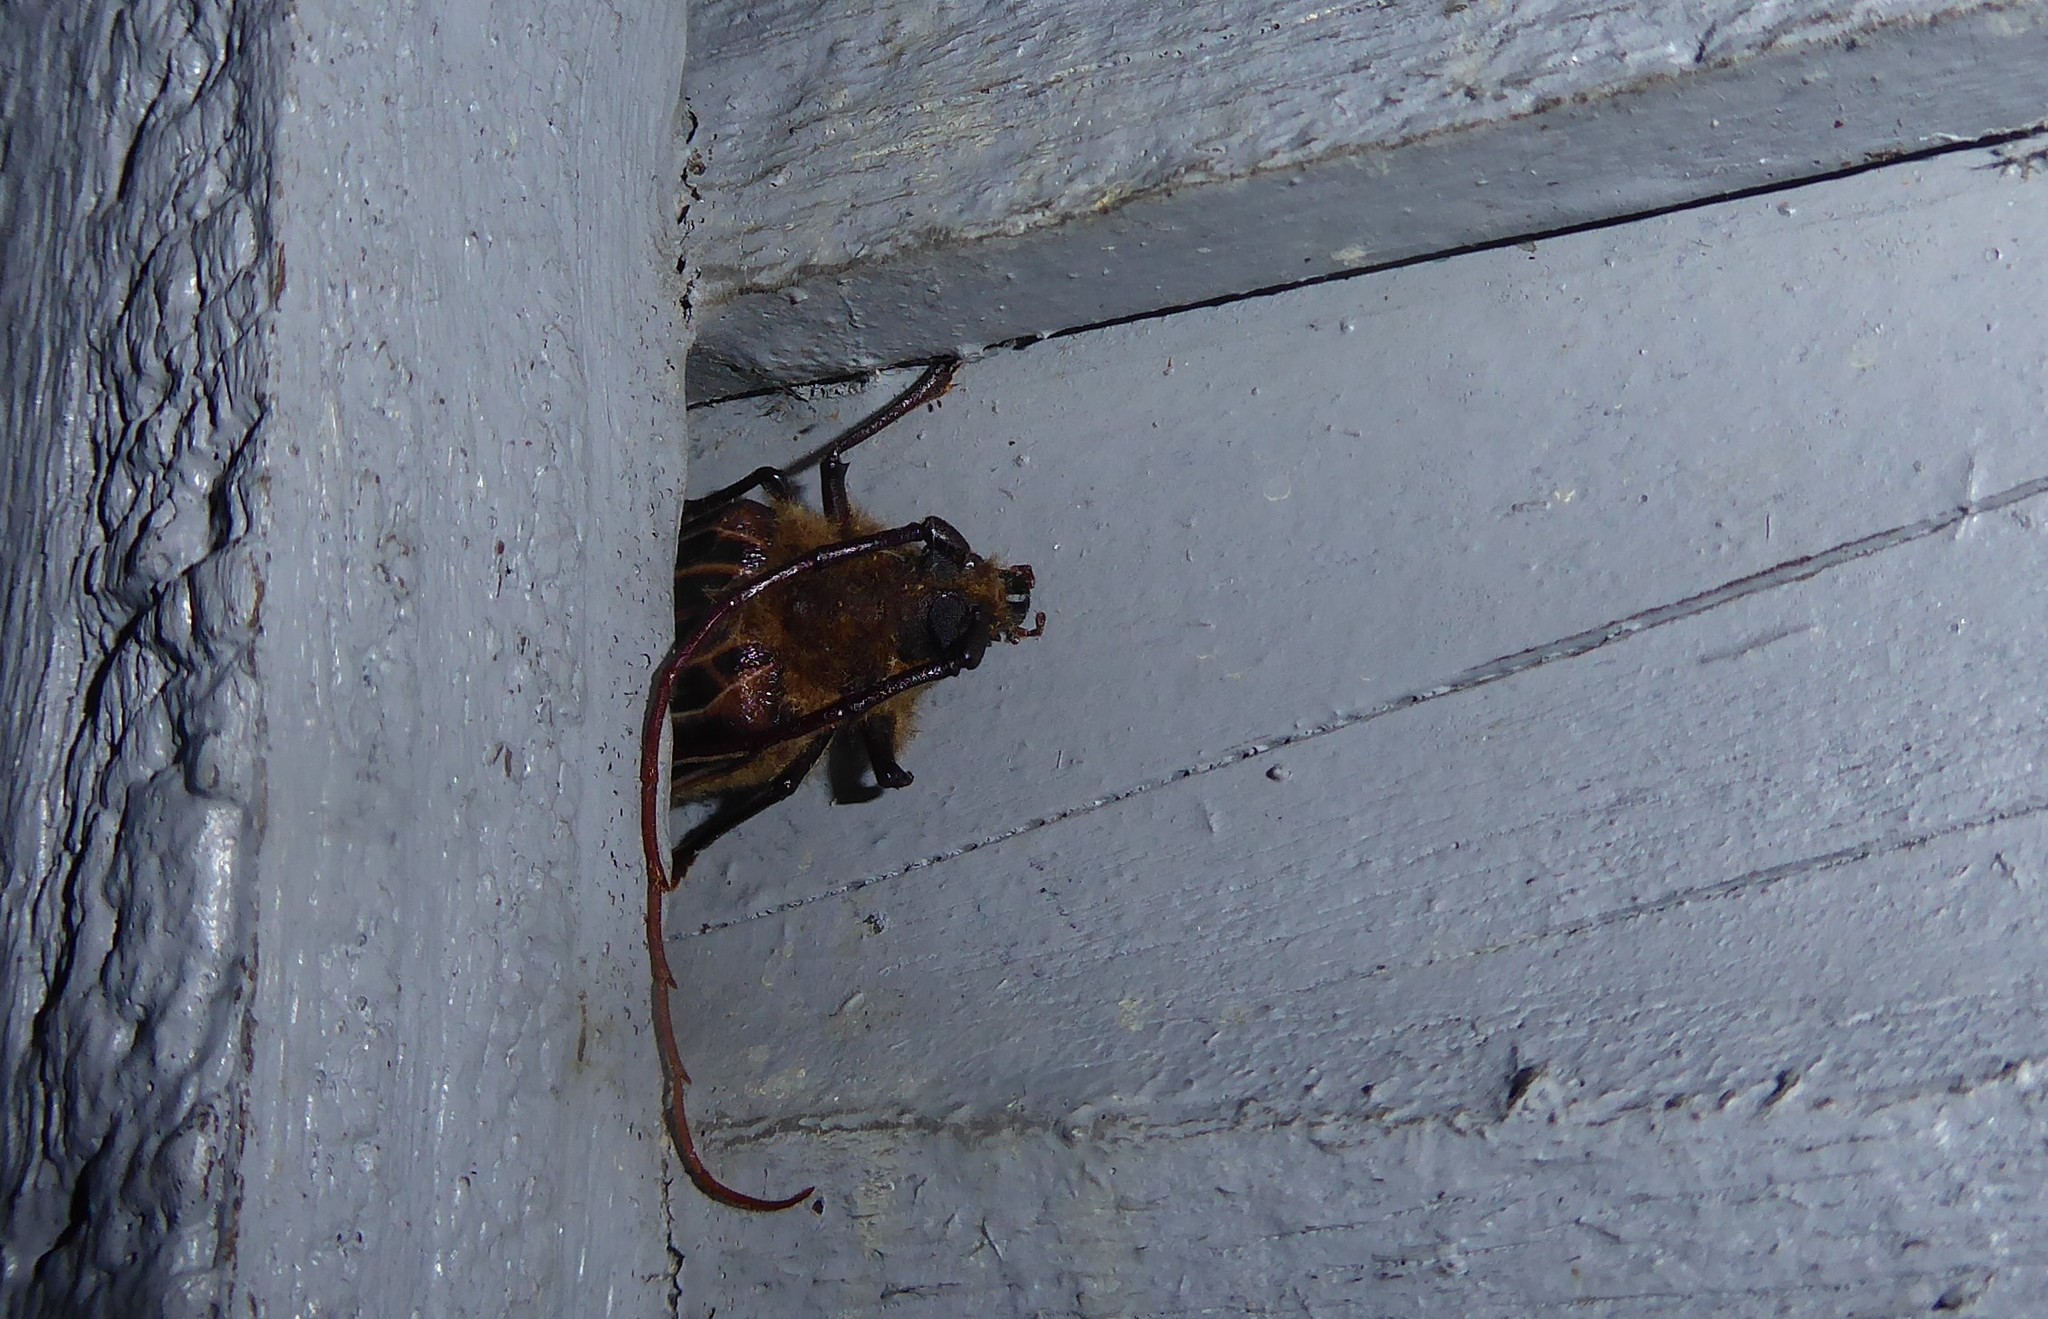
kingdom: Animalia
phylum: Arthropoda
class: Insecta
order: Coleoptera
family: Cerambycidae
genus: Prionoplus
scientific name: Prionoplus reticularis
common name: Huhu beetle
